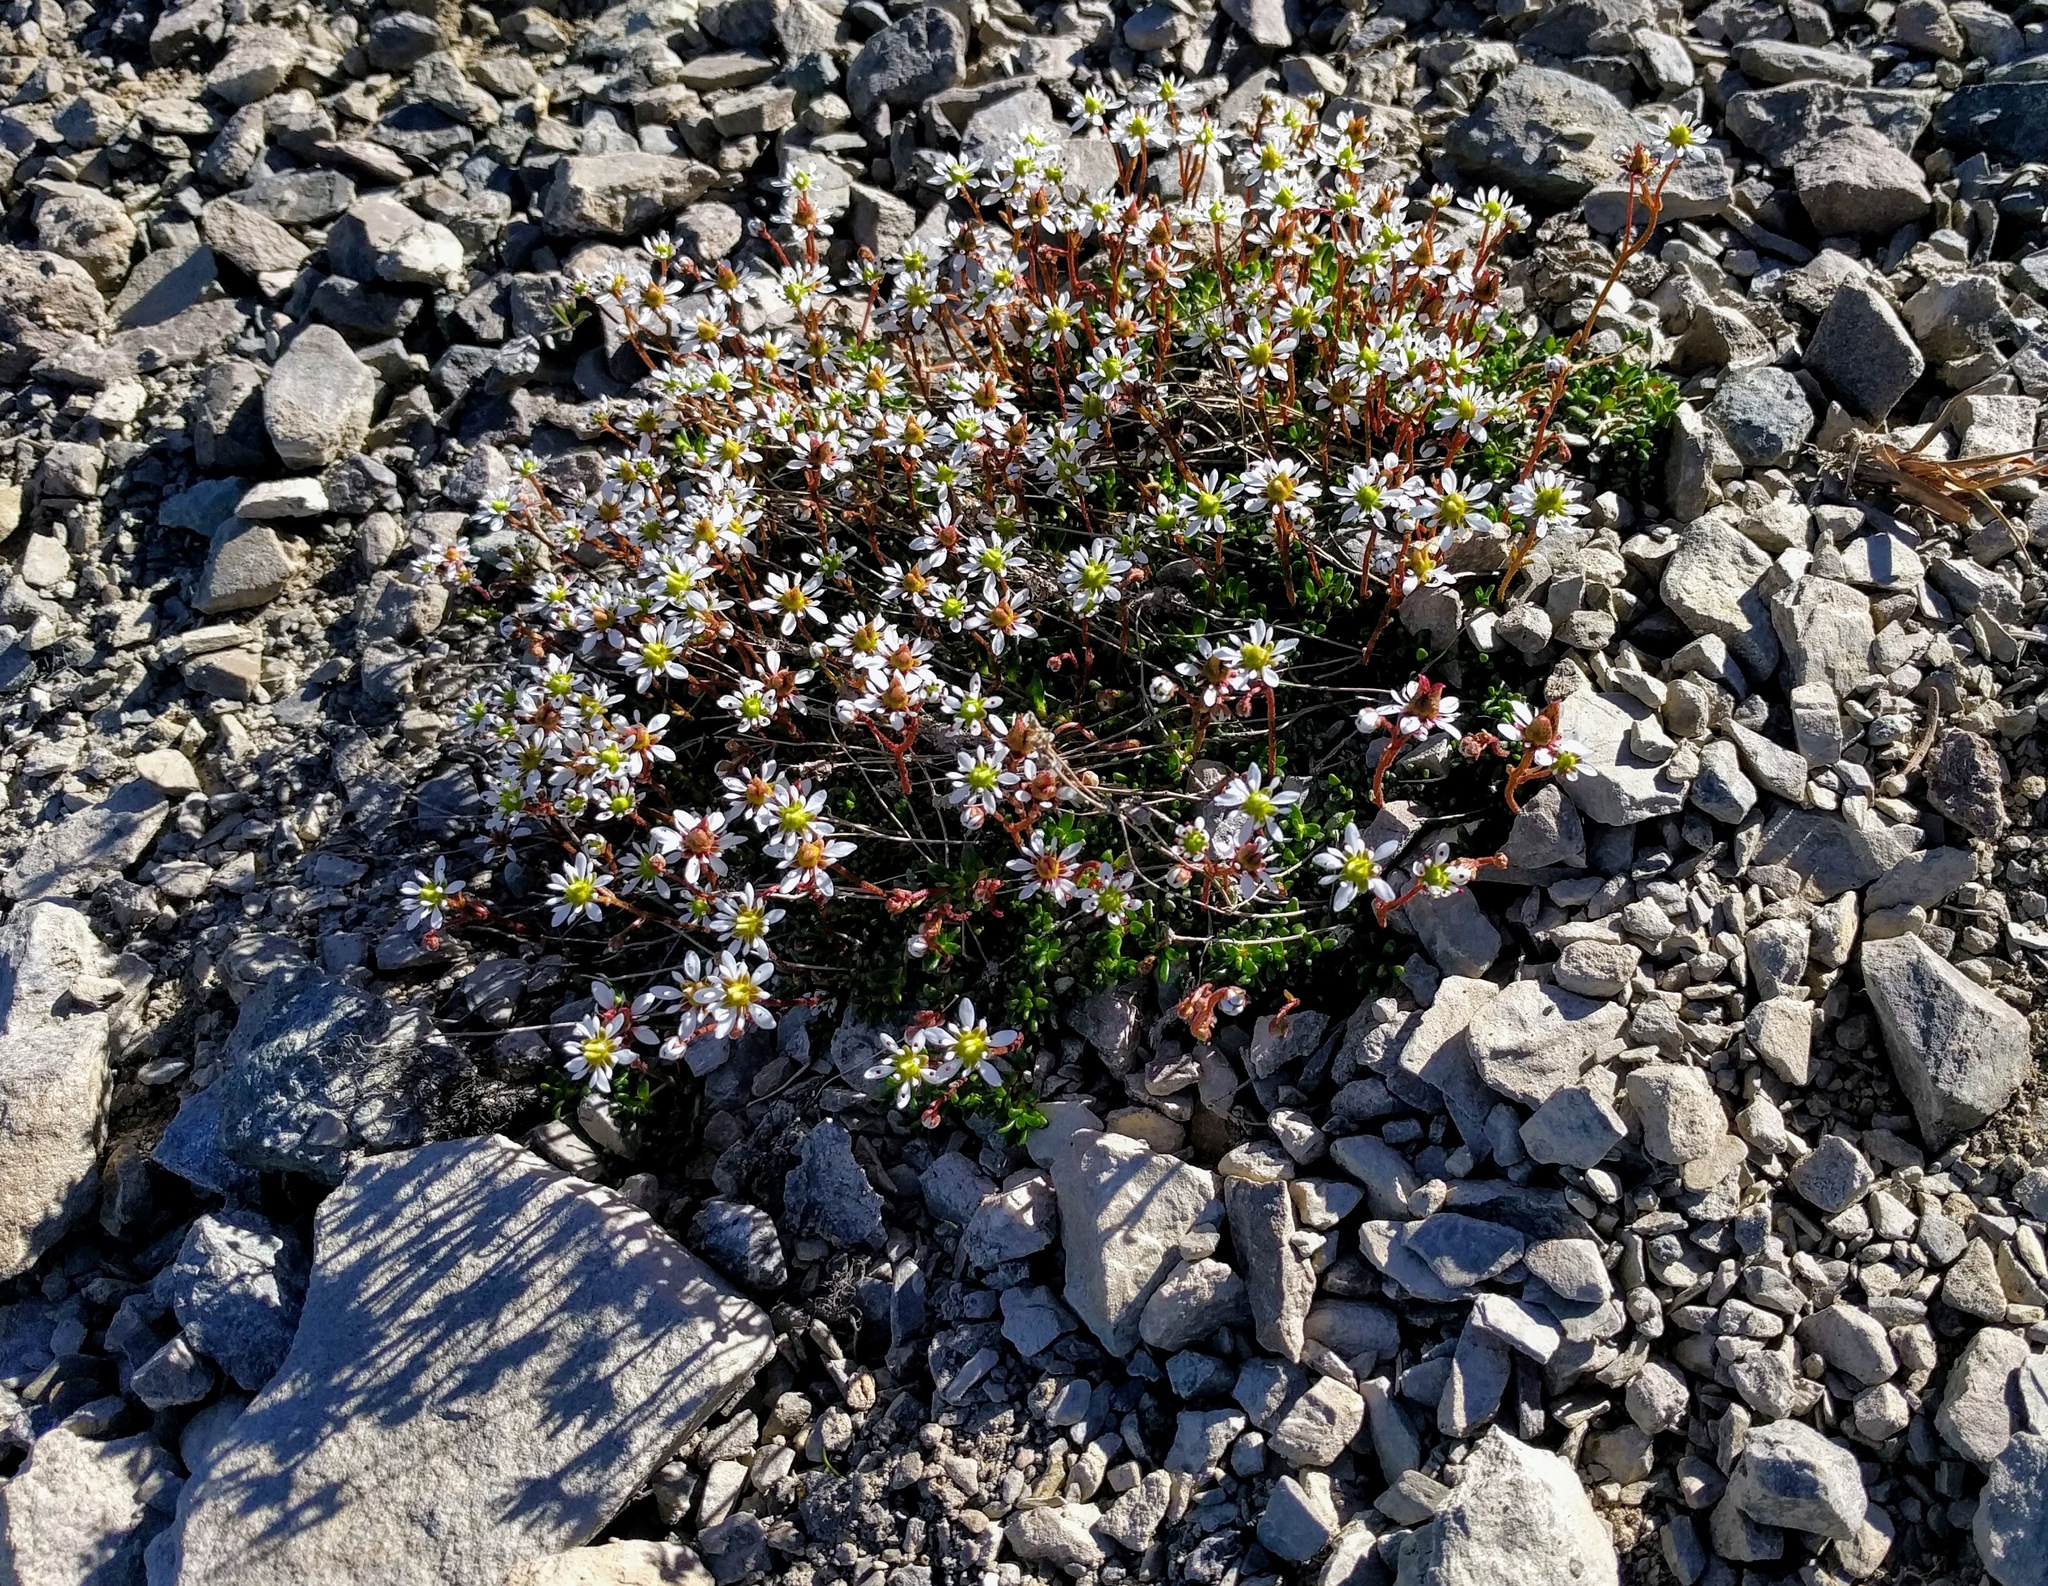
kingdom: Plantae
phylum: Tracheophyta
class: Magnoliopsida
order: Saxifragales
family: Saxifragaceae
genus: Micranthes
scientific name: Micranthes tolmiei
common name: Tolmie's saxifrage
